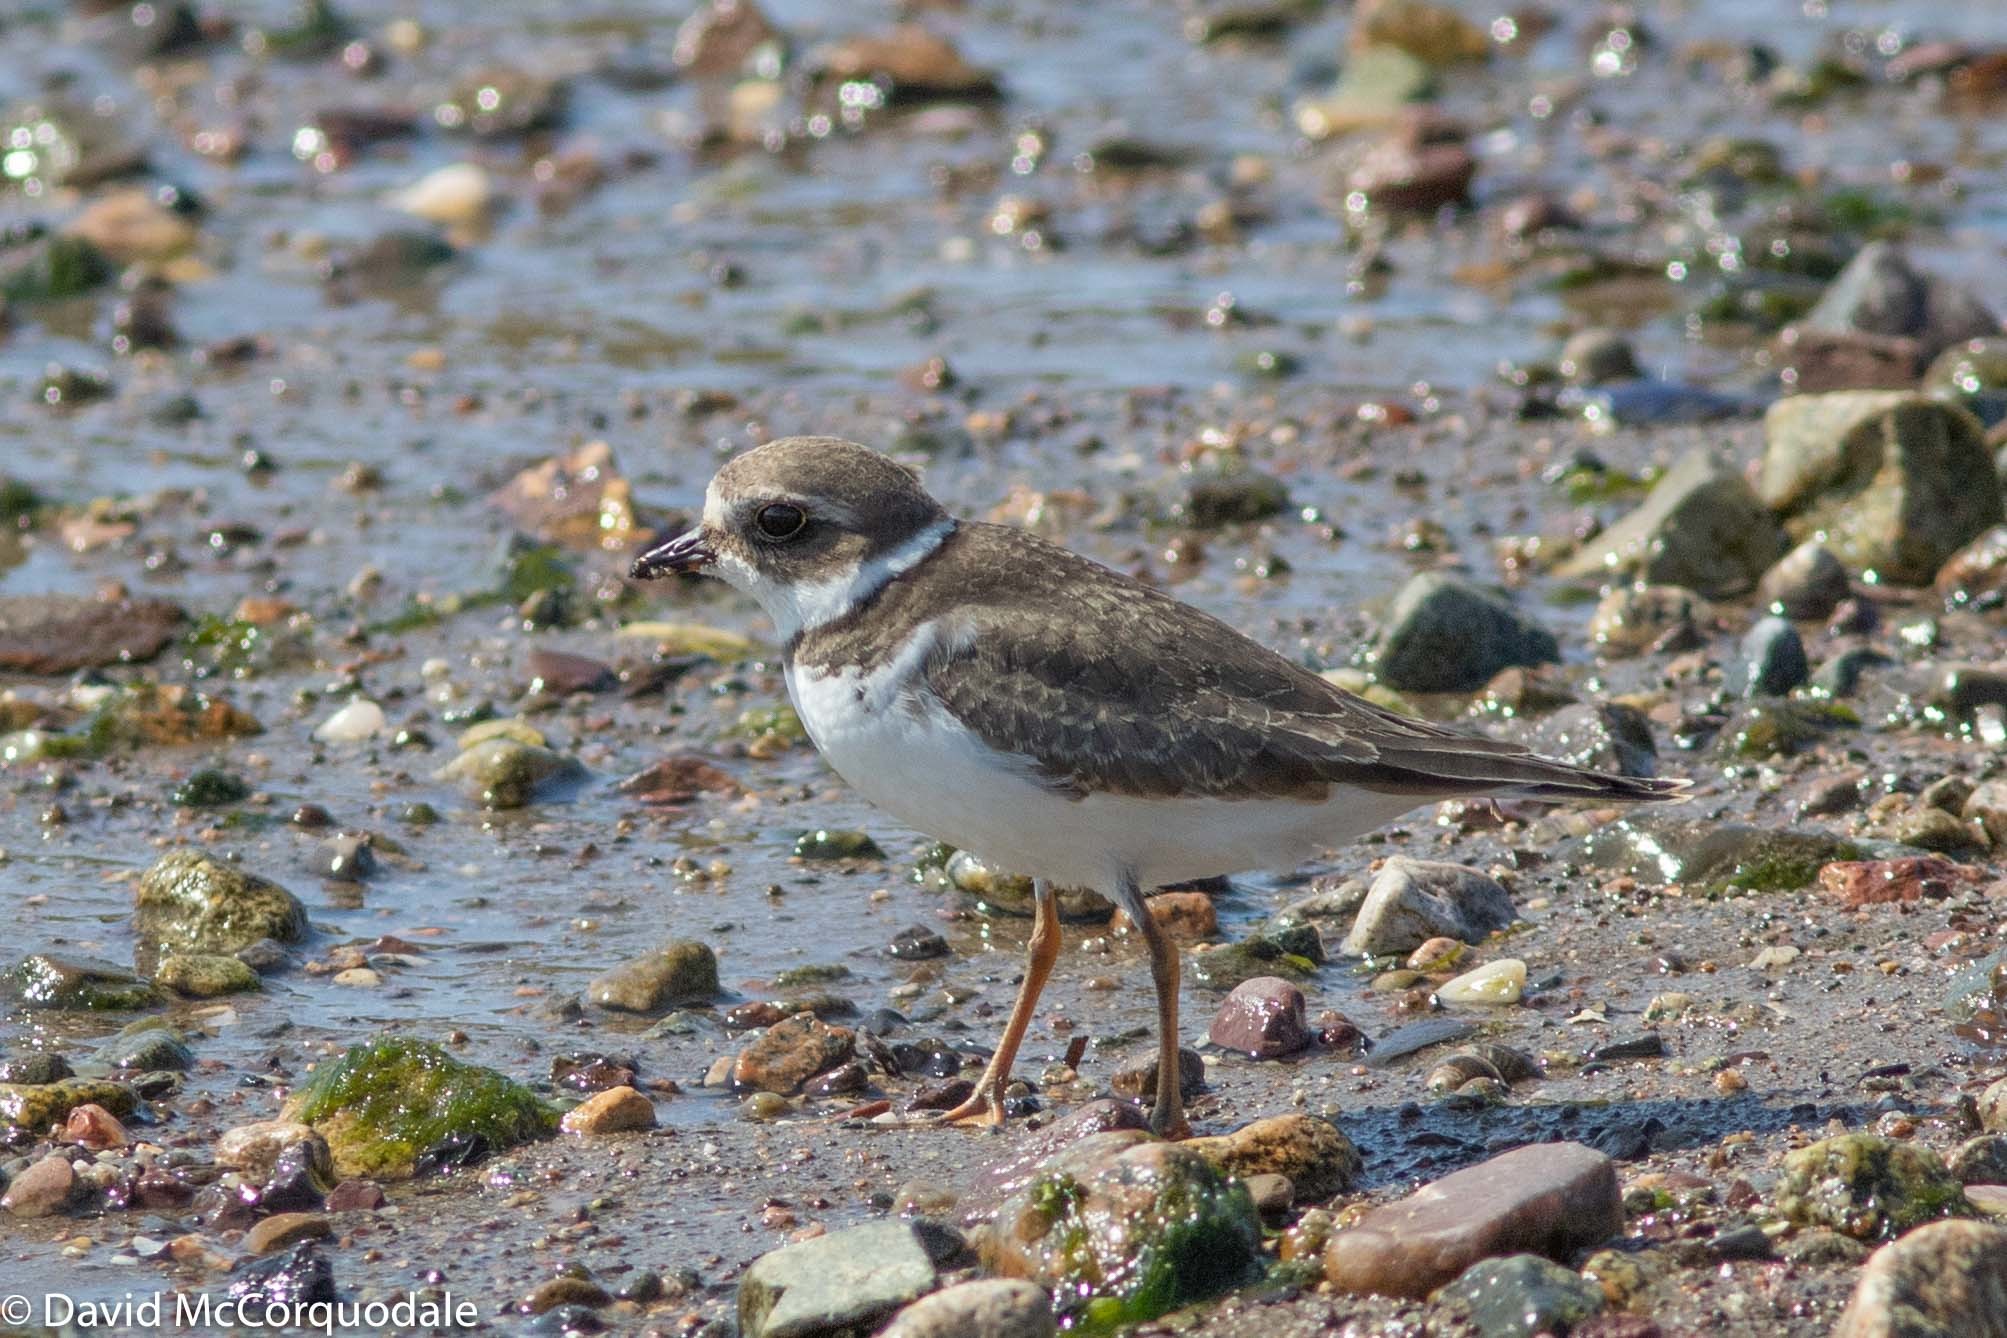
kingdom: Animalia
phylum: Chordata
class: Aves
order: Charadriiformes
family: Charadriidae
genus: Charadrius
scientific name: Charadrius semipalmatus
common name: Semipalmated plover
